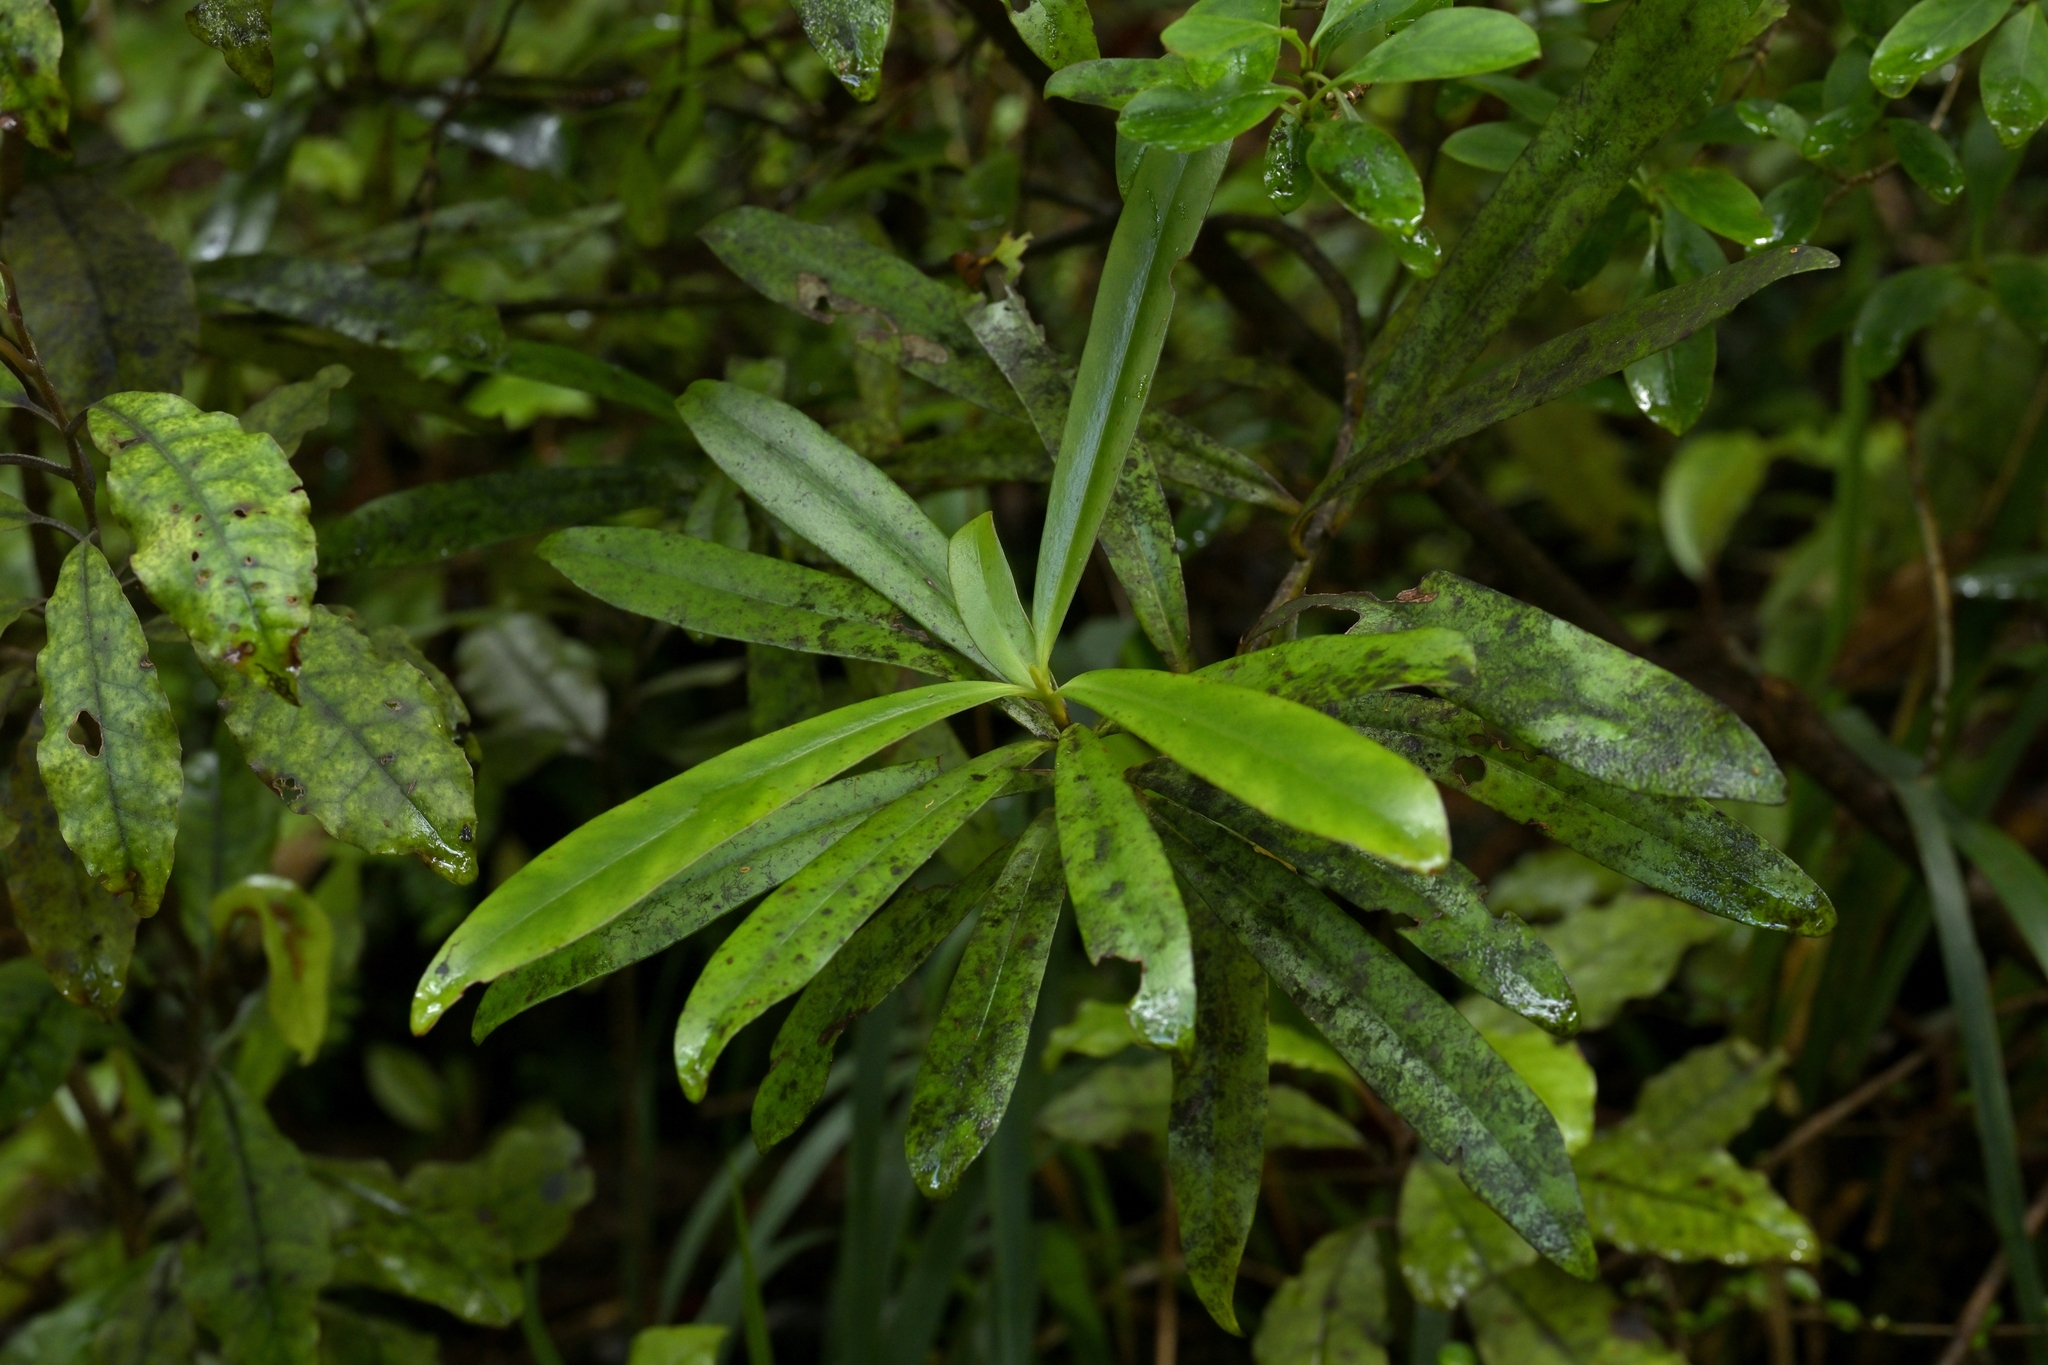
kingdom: Plantae
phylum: Tracheophyta
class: Magnoliopsida
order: Ericales
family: Primulaceae
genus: Myrsine
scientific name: Myrsine salicina
